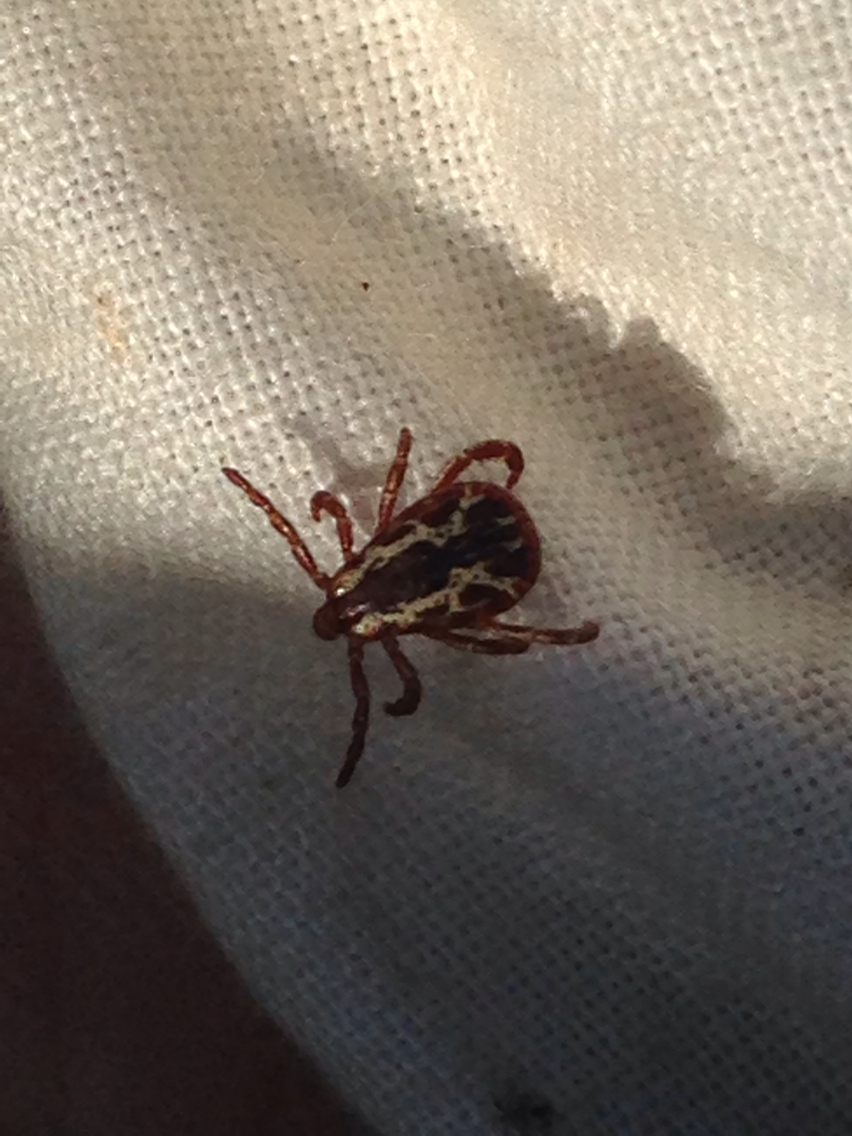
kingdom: Animalia
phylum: Arthropoda
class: Arachnida
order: Ixodida
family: Ixodidae
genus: Dermacentor
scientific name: Dermacentor variabilis
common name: American dog tick
